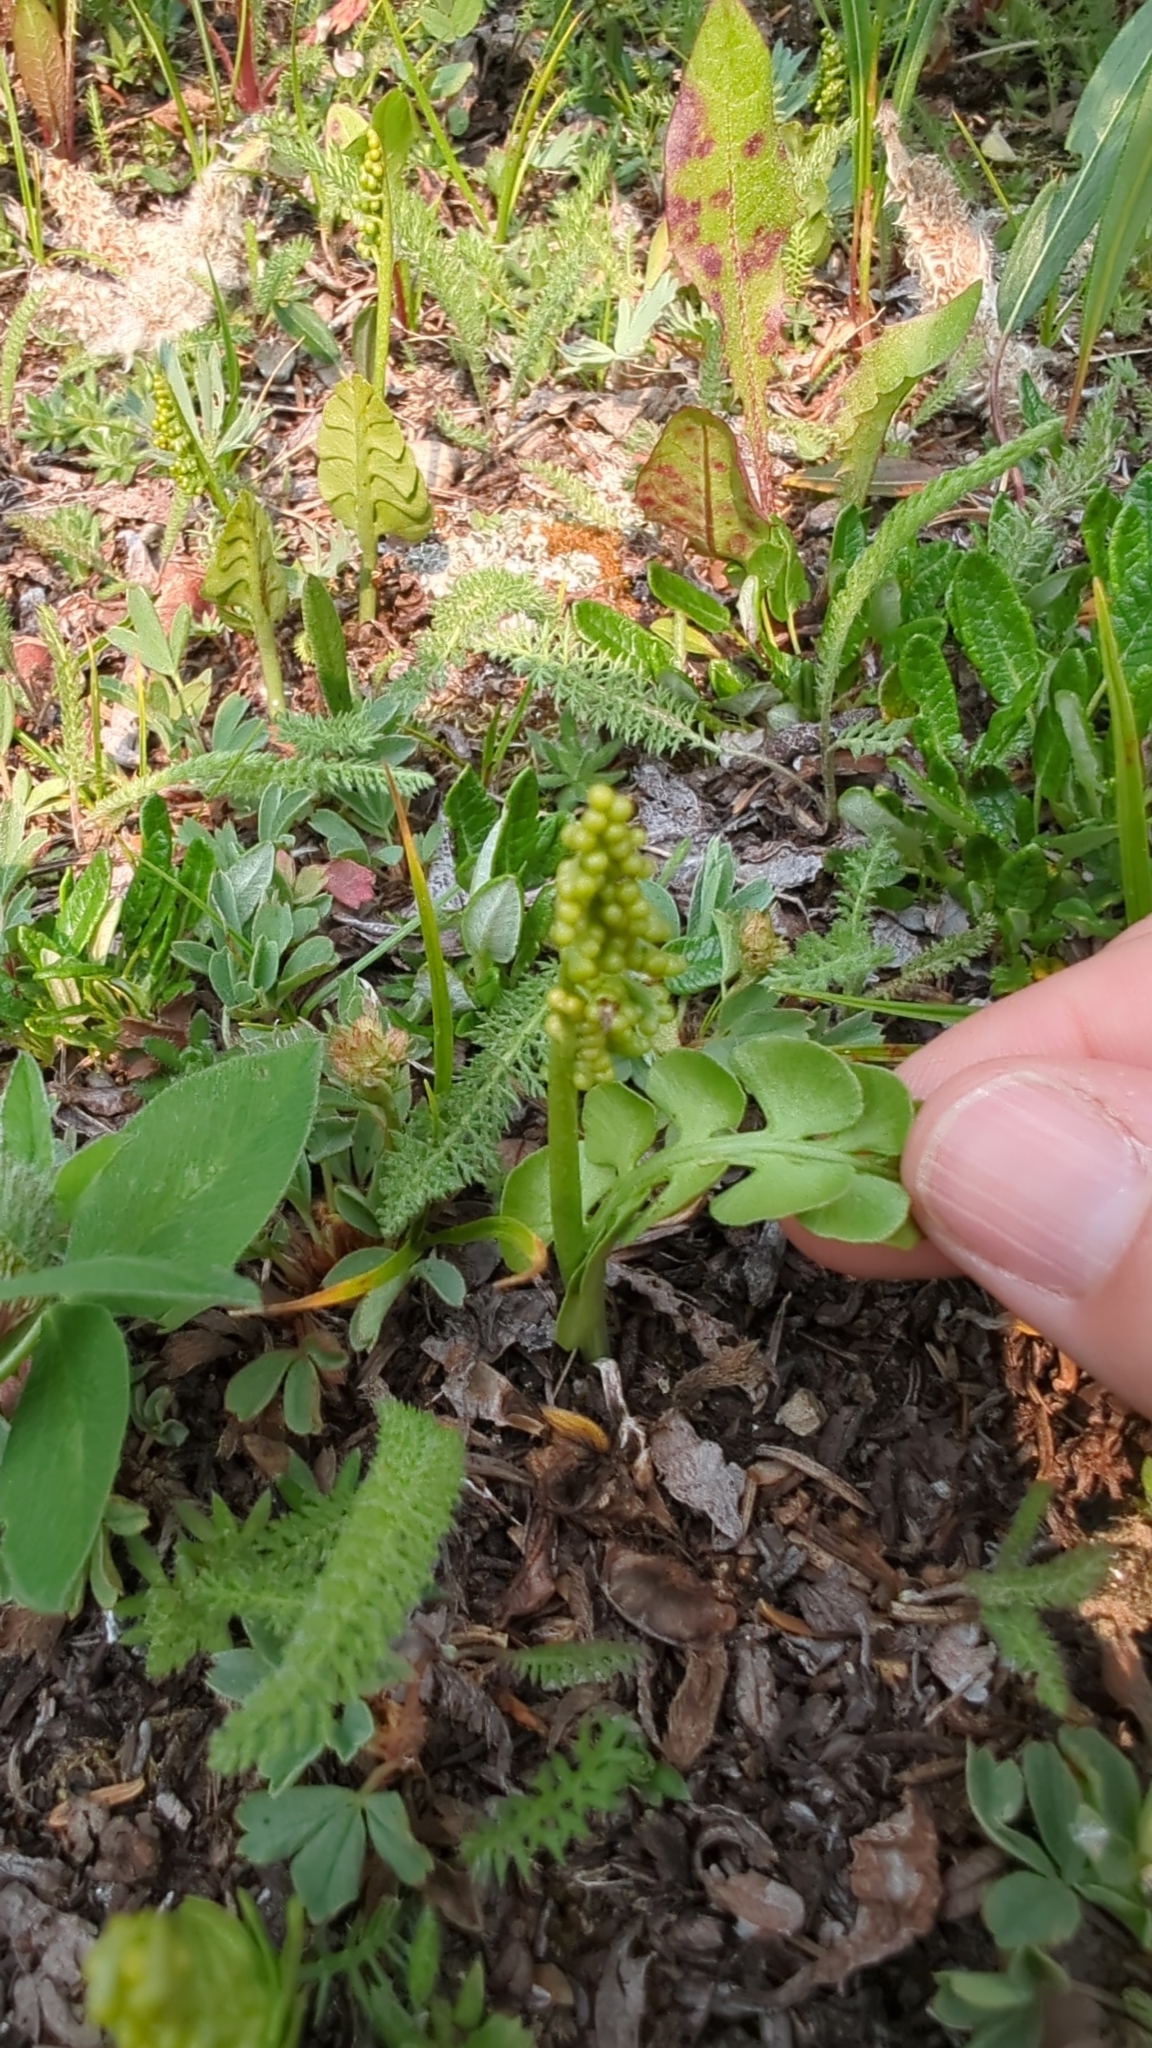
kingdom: Plantae
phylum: Tracheophyta
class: Polypodiopsida
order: Ophioglossales
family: Ophioglossaceae
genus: Botrychium
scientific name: Botrychium lunaria
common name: Moonwort
